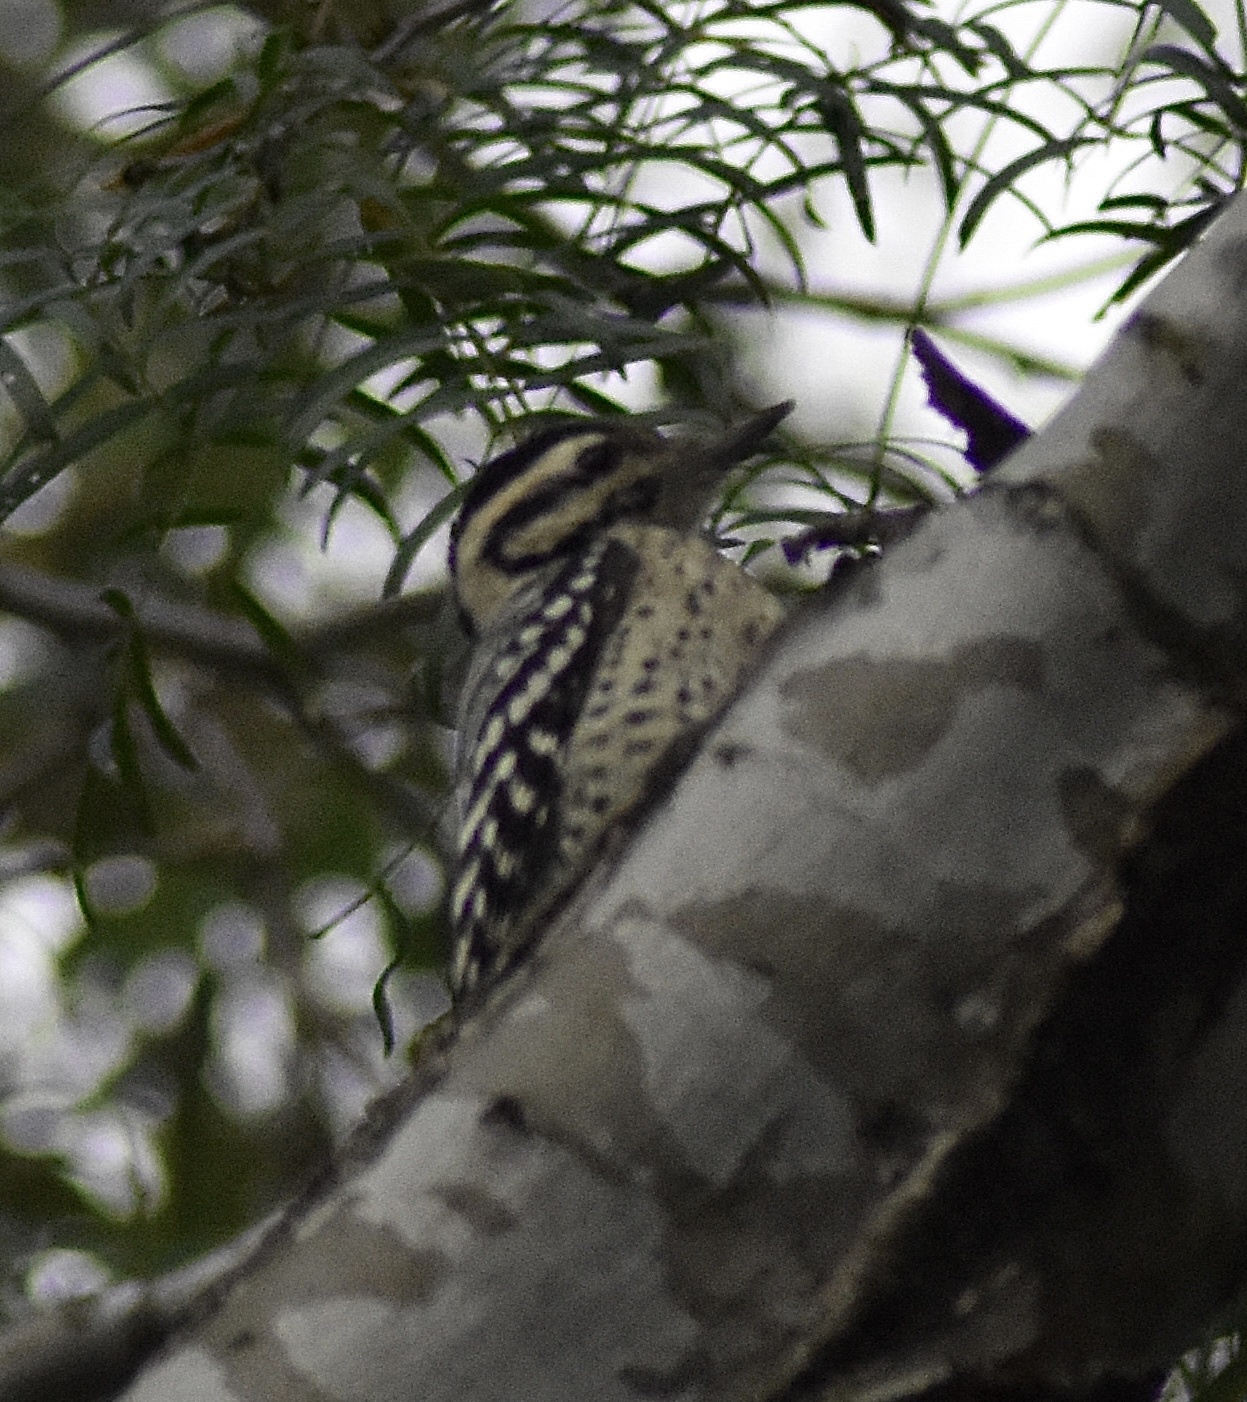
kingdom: Animalia
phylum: Chordata
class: Aves
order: Piciformes
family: Picidae
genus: Dryobates
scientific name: Dryobates scalaris
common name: Ladder-backed woodpecker
